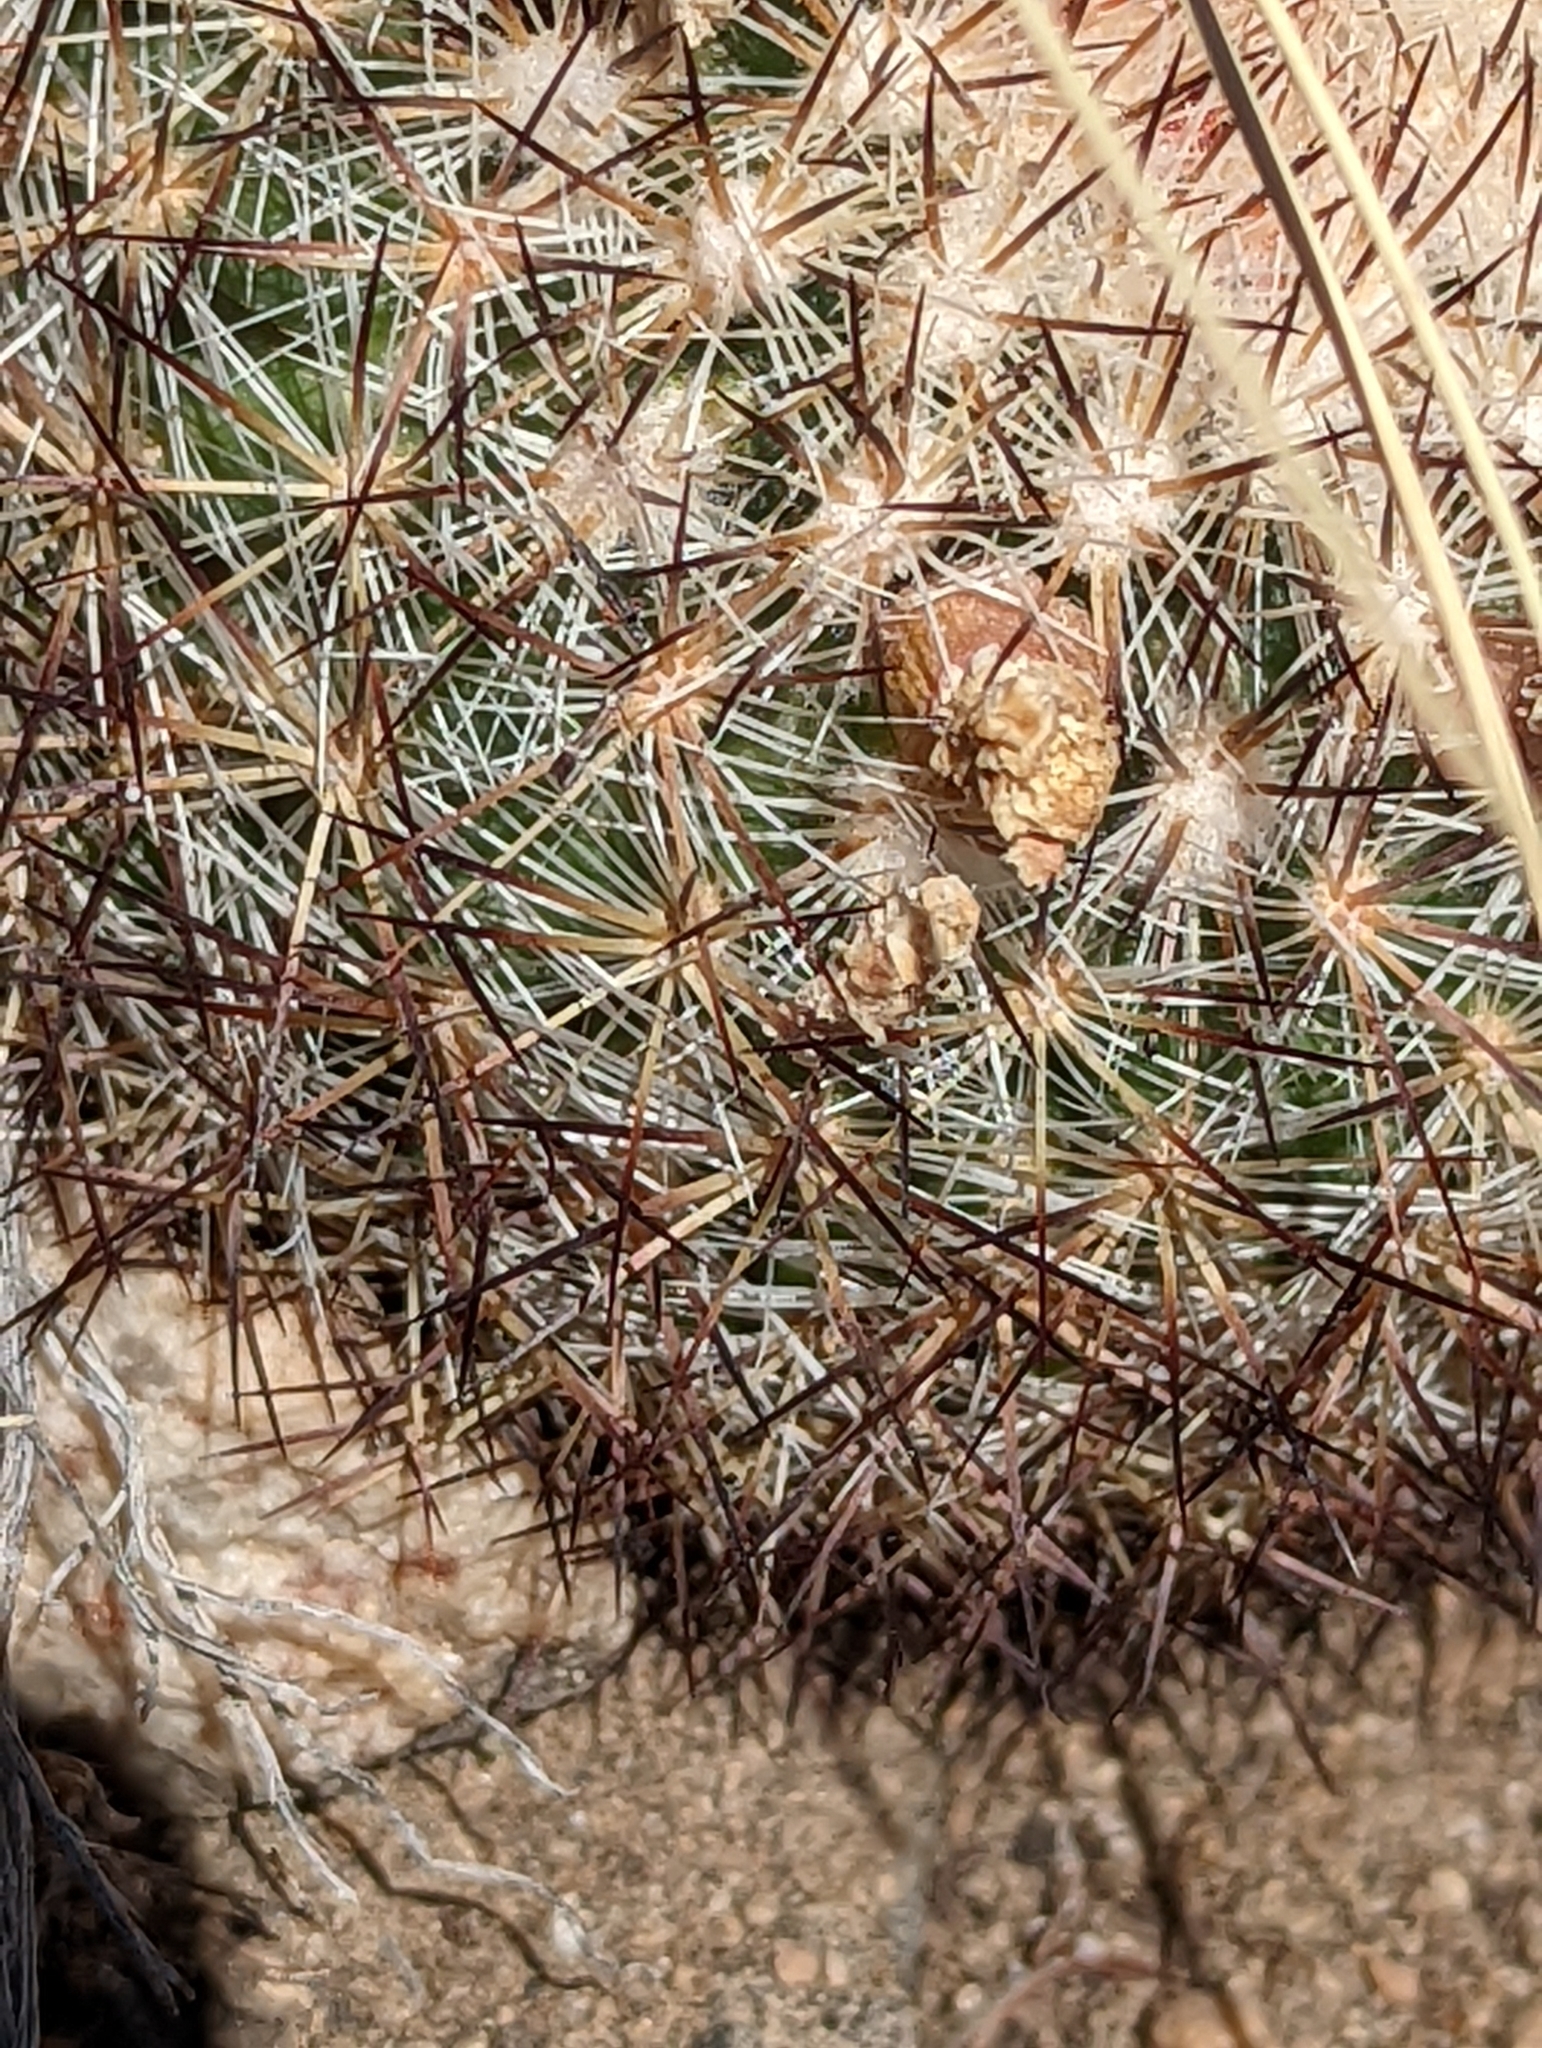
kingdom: Plantae
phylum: Tracheophyta
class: Magnoliopsida
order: Caryophyllales
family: Cactaceae
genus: Pediocactus
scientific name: Pediocactus simpsonii
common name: Simpson's hedgehog cactus
